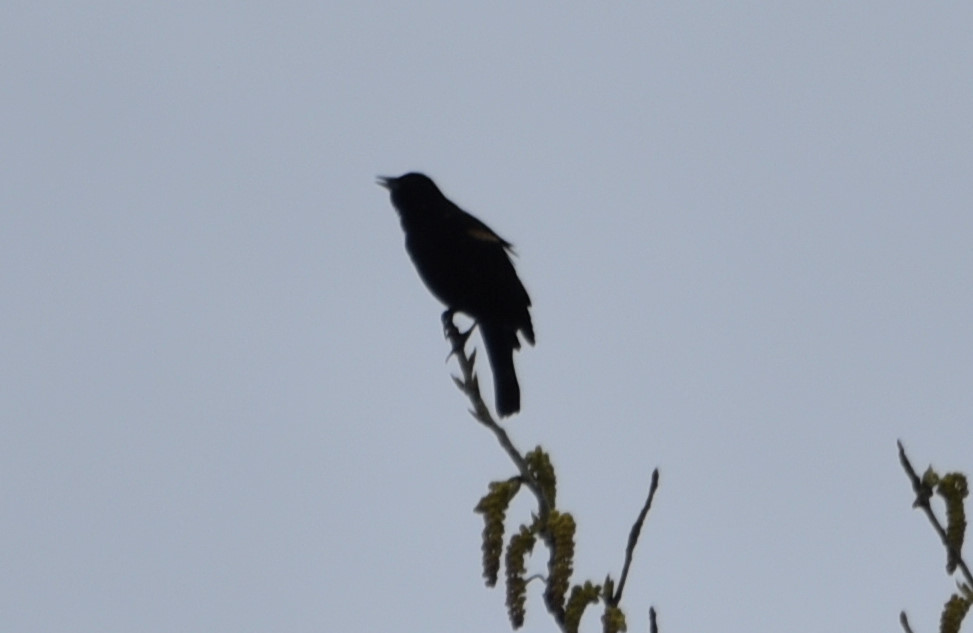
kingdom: Animalia
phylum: Chordata
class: Aves
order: Passeriformes
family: Icteridae
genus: Agelaius
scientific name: Agelaius phoeniceus
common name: Red-winged blackbird
